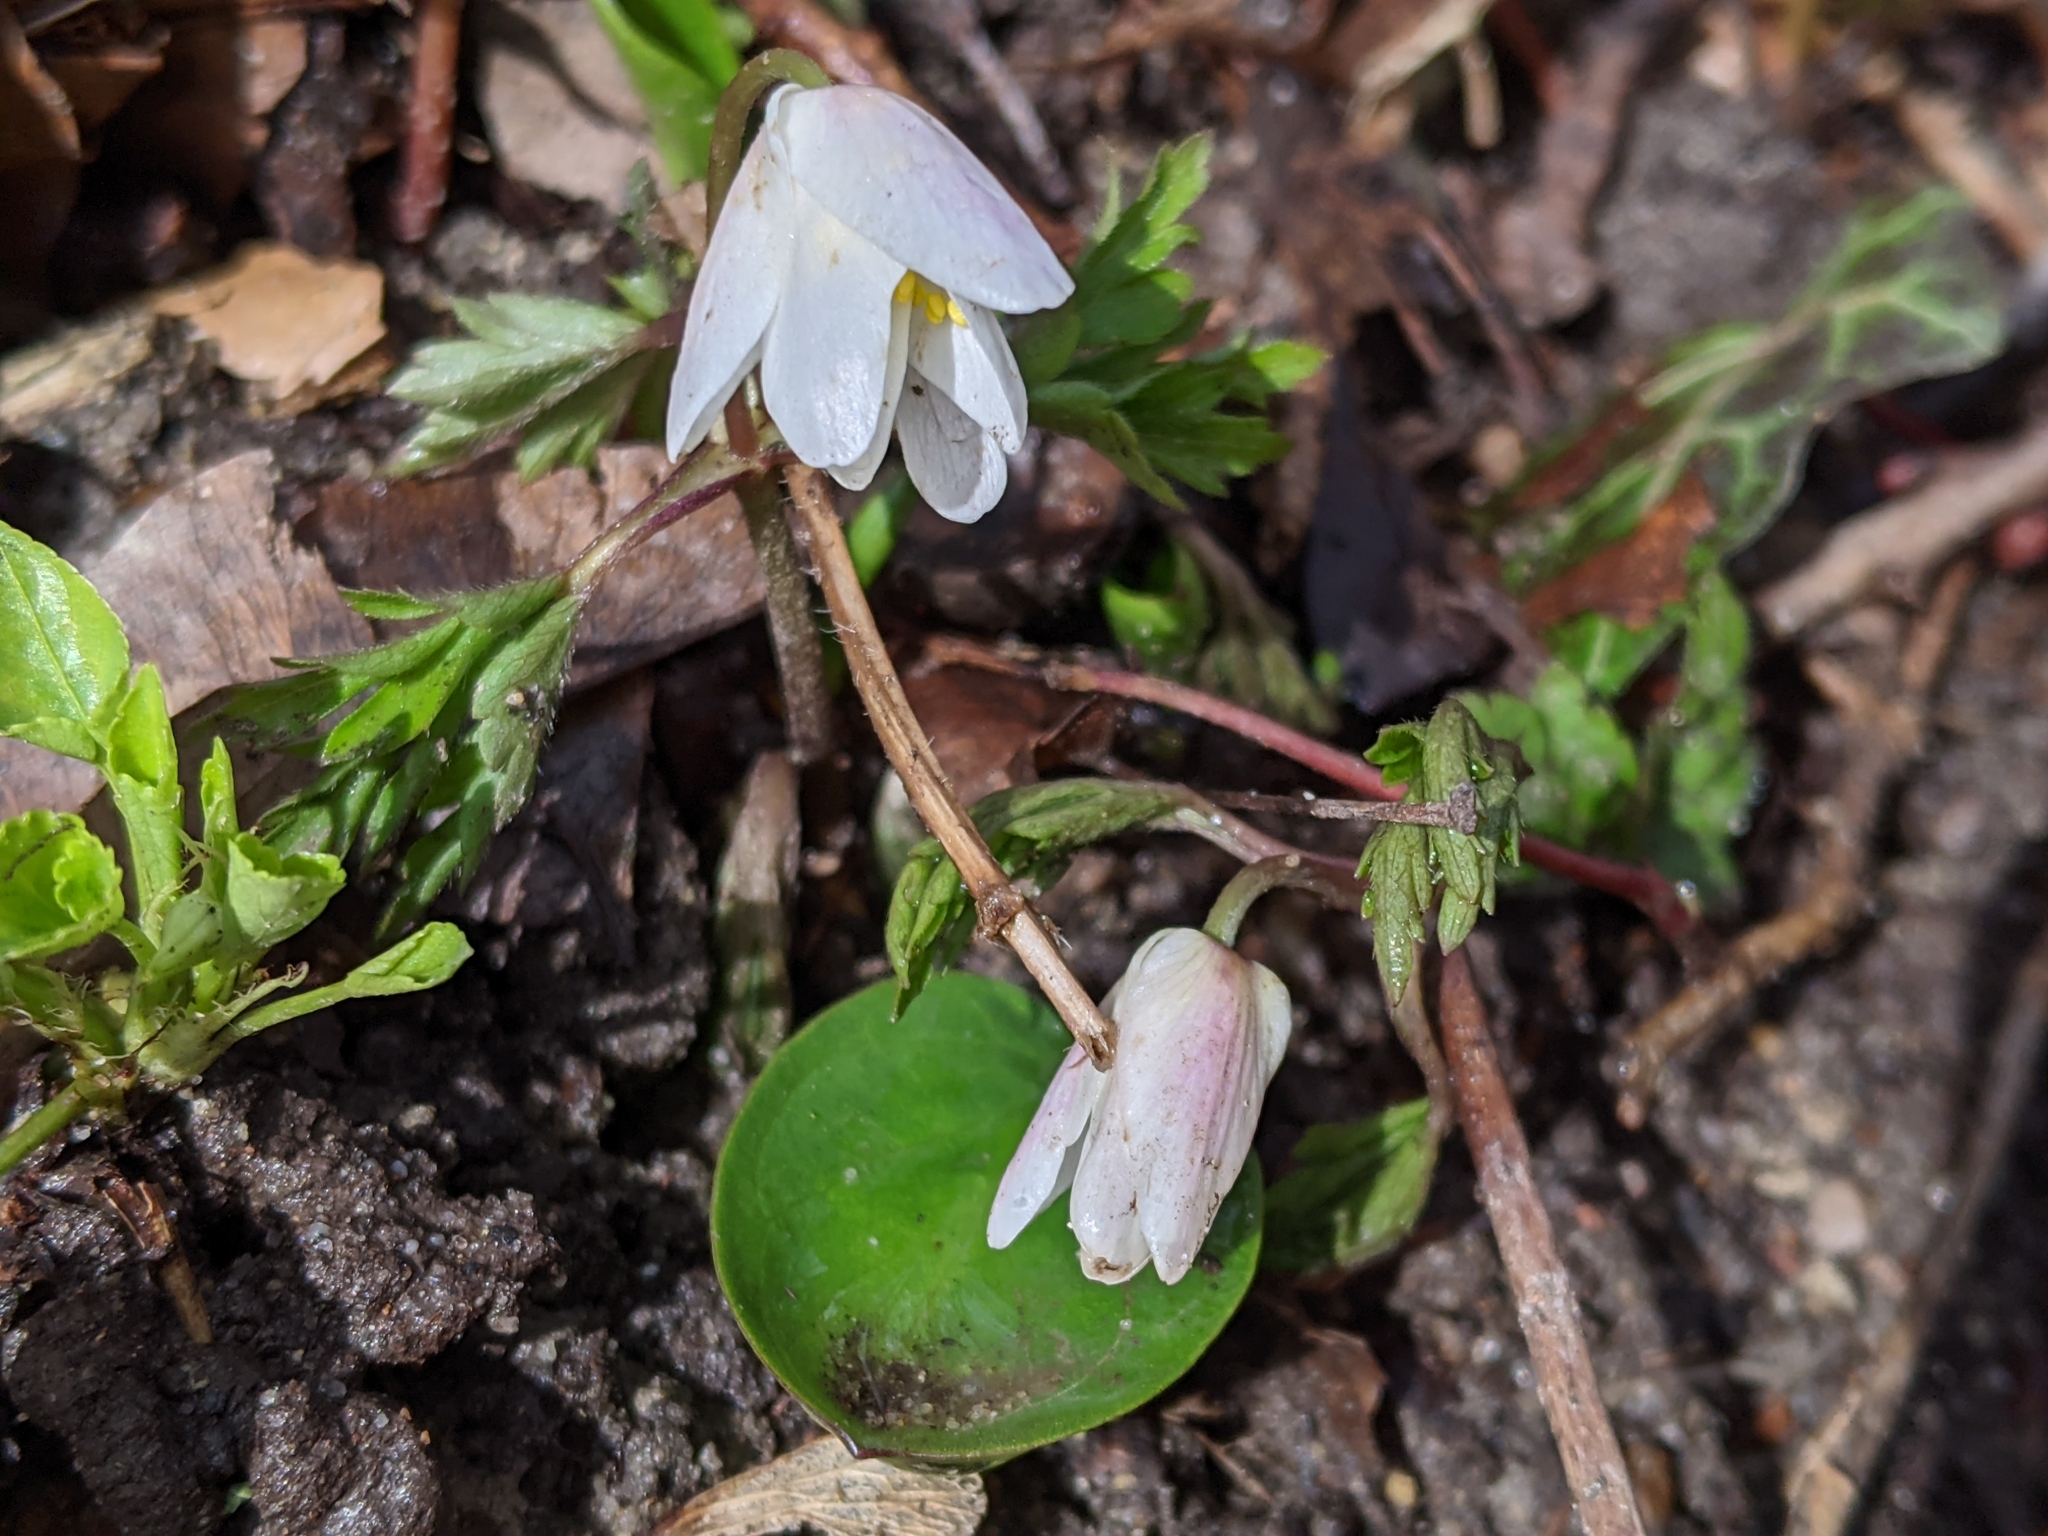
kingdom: Plantae
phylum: Tracheophyta
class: Magnoliopsida
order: Ranunculales
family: Ranunculaceae
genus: Anemone
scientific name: Anemone nemorosa
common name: Wood anemone
